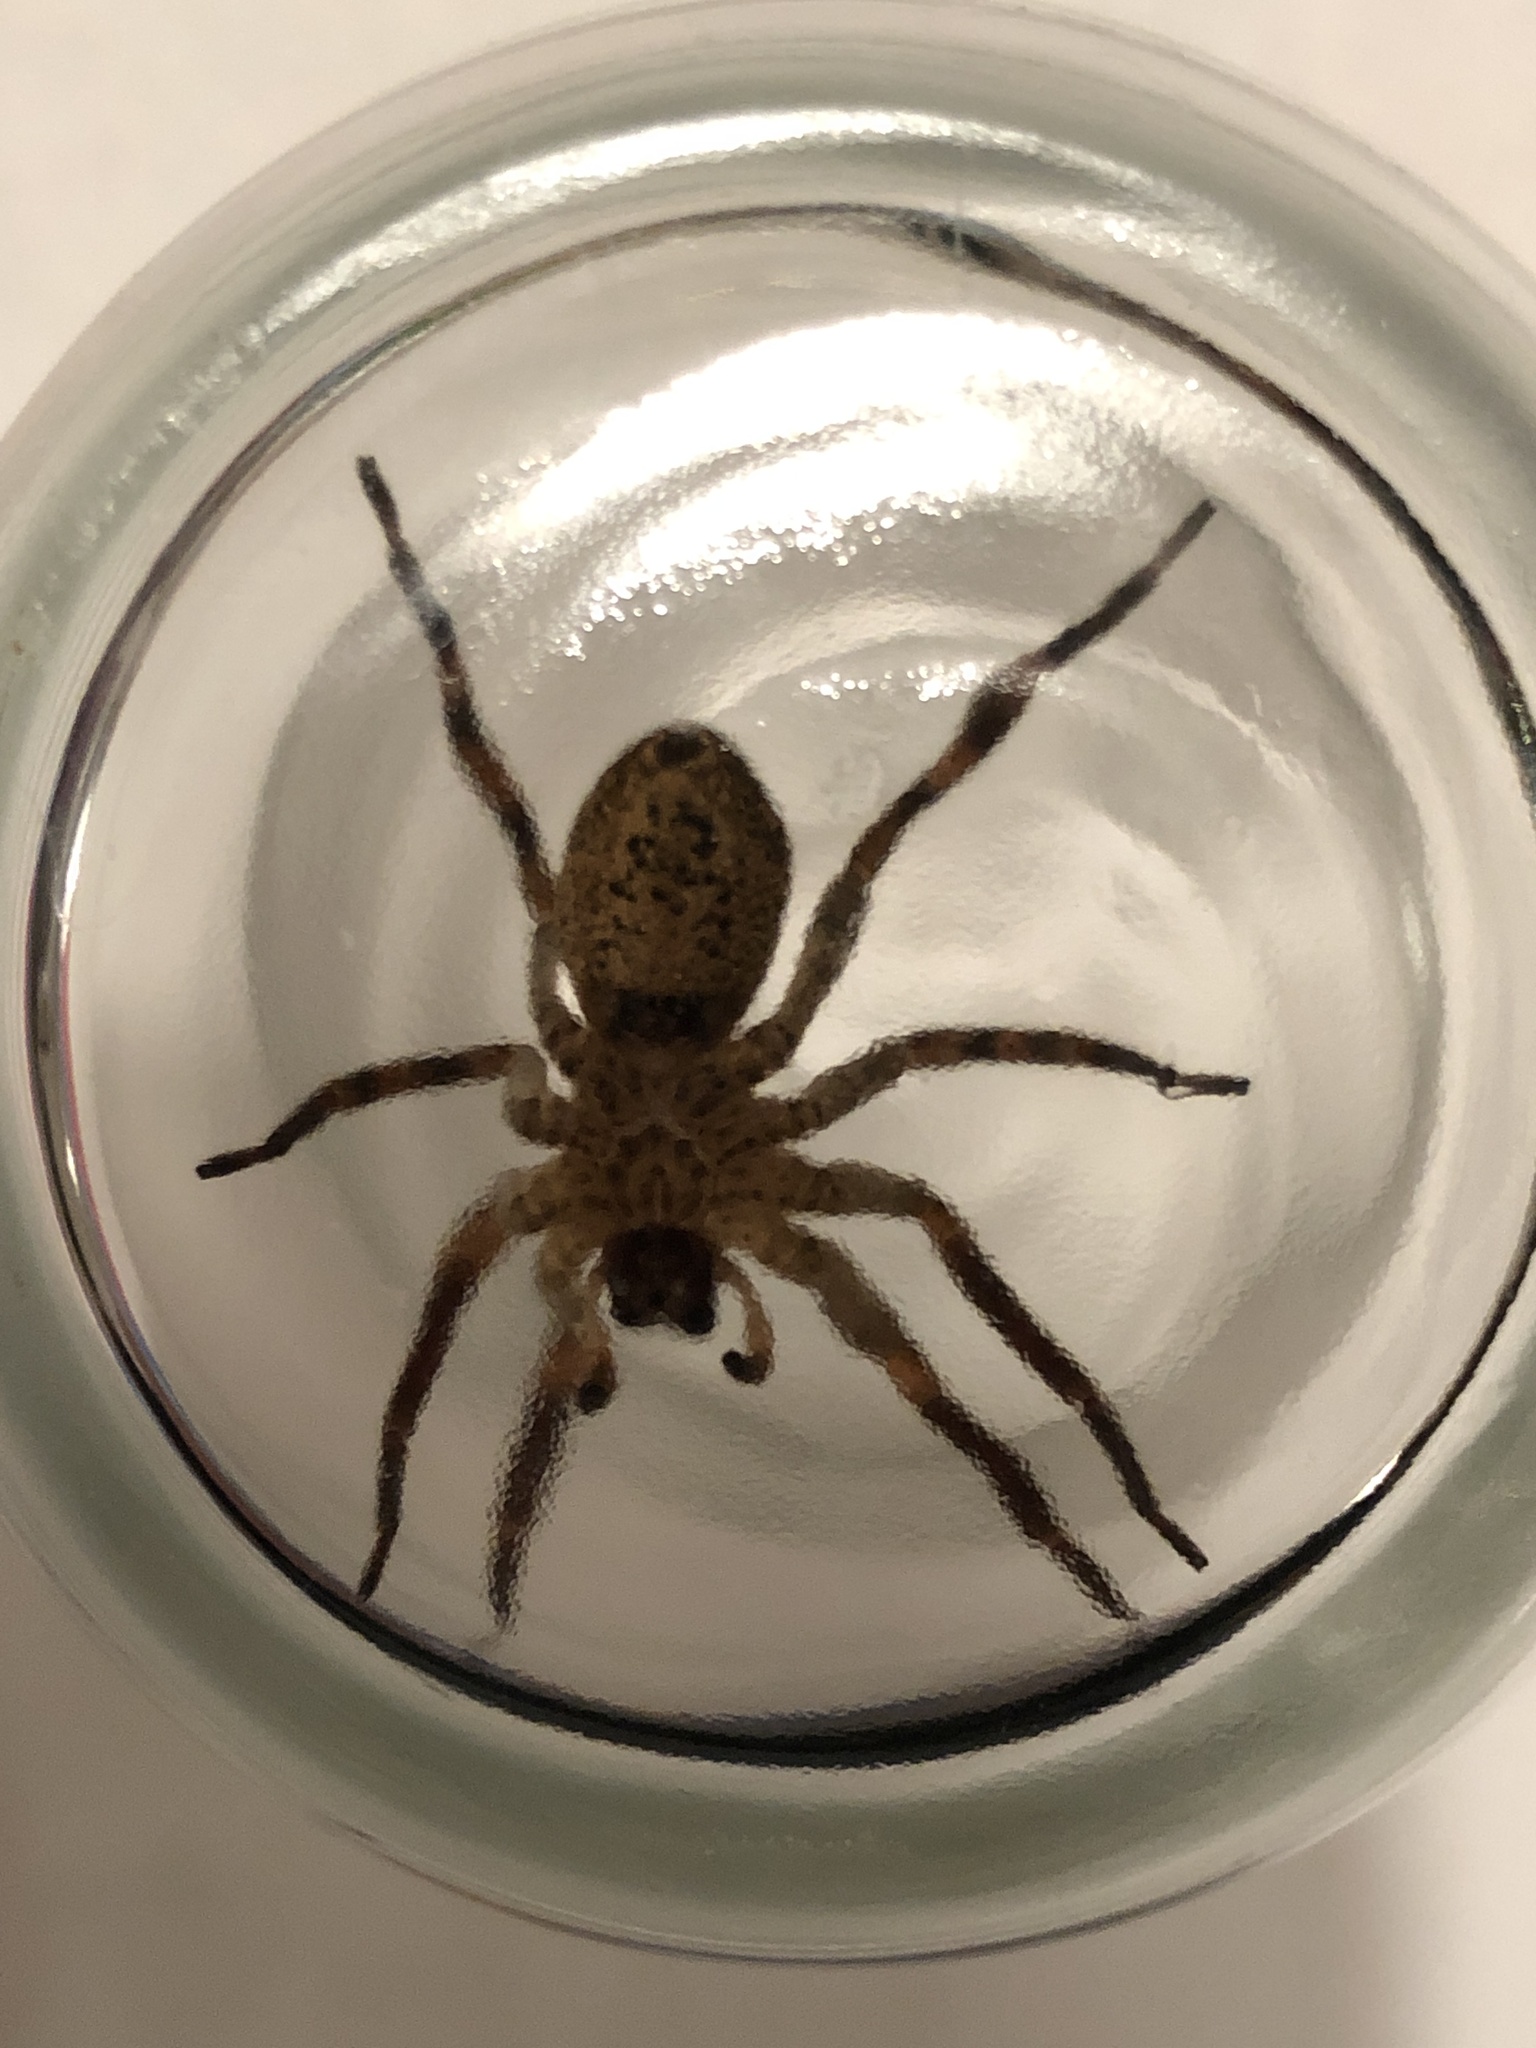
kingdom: Animalia
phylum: Arthropoda
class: Arachnida
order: Araneae
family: Zoropsidae
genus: Zoropsis
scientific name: Zoropsis spinimana
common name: Zoropsid spider
